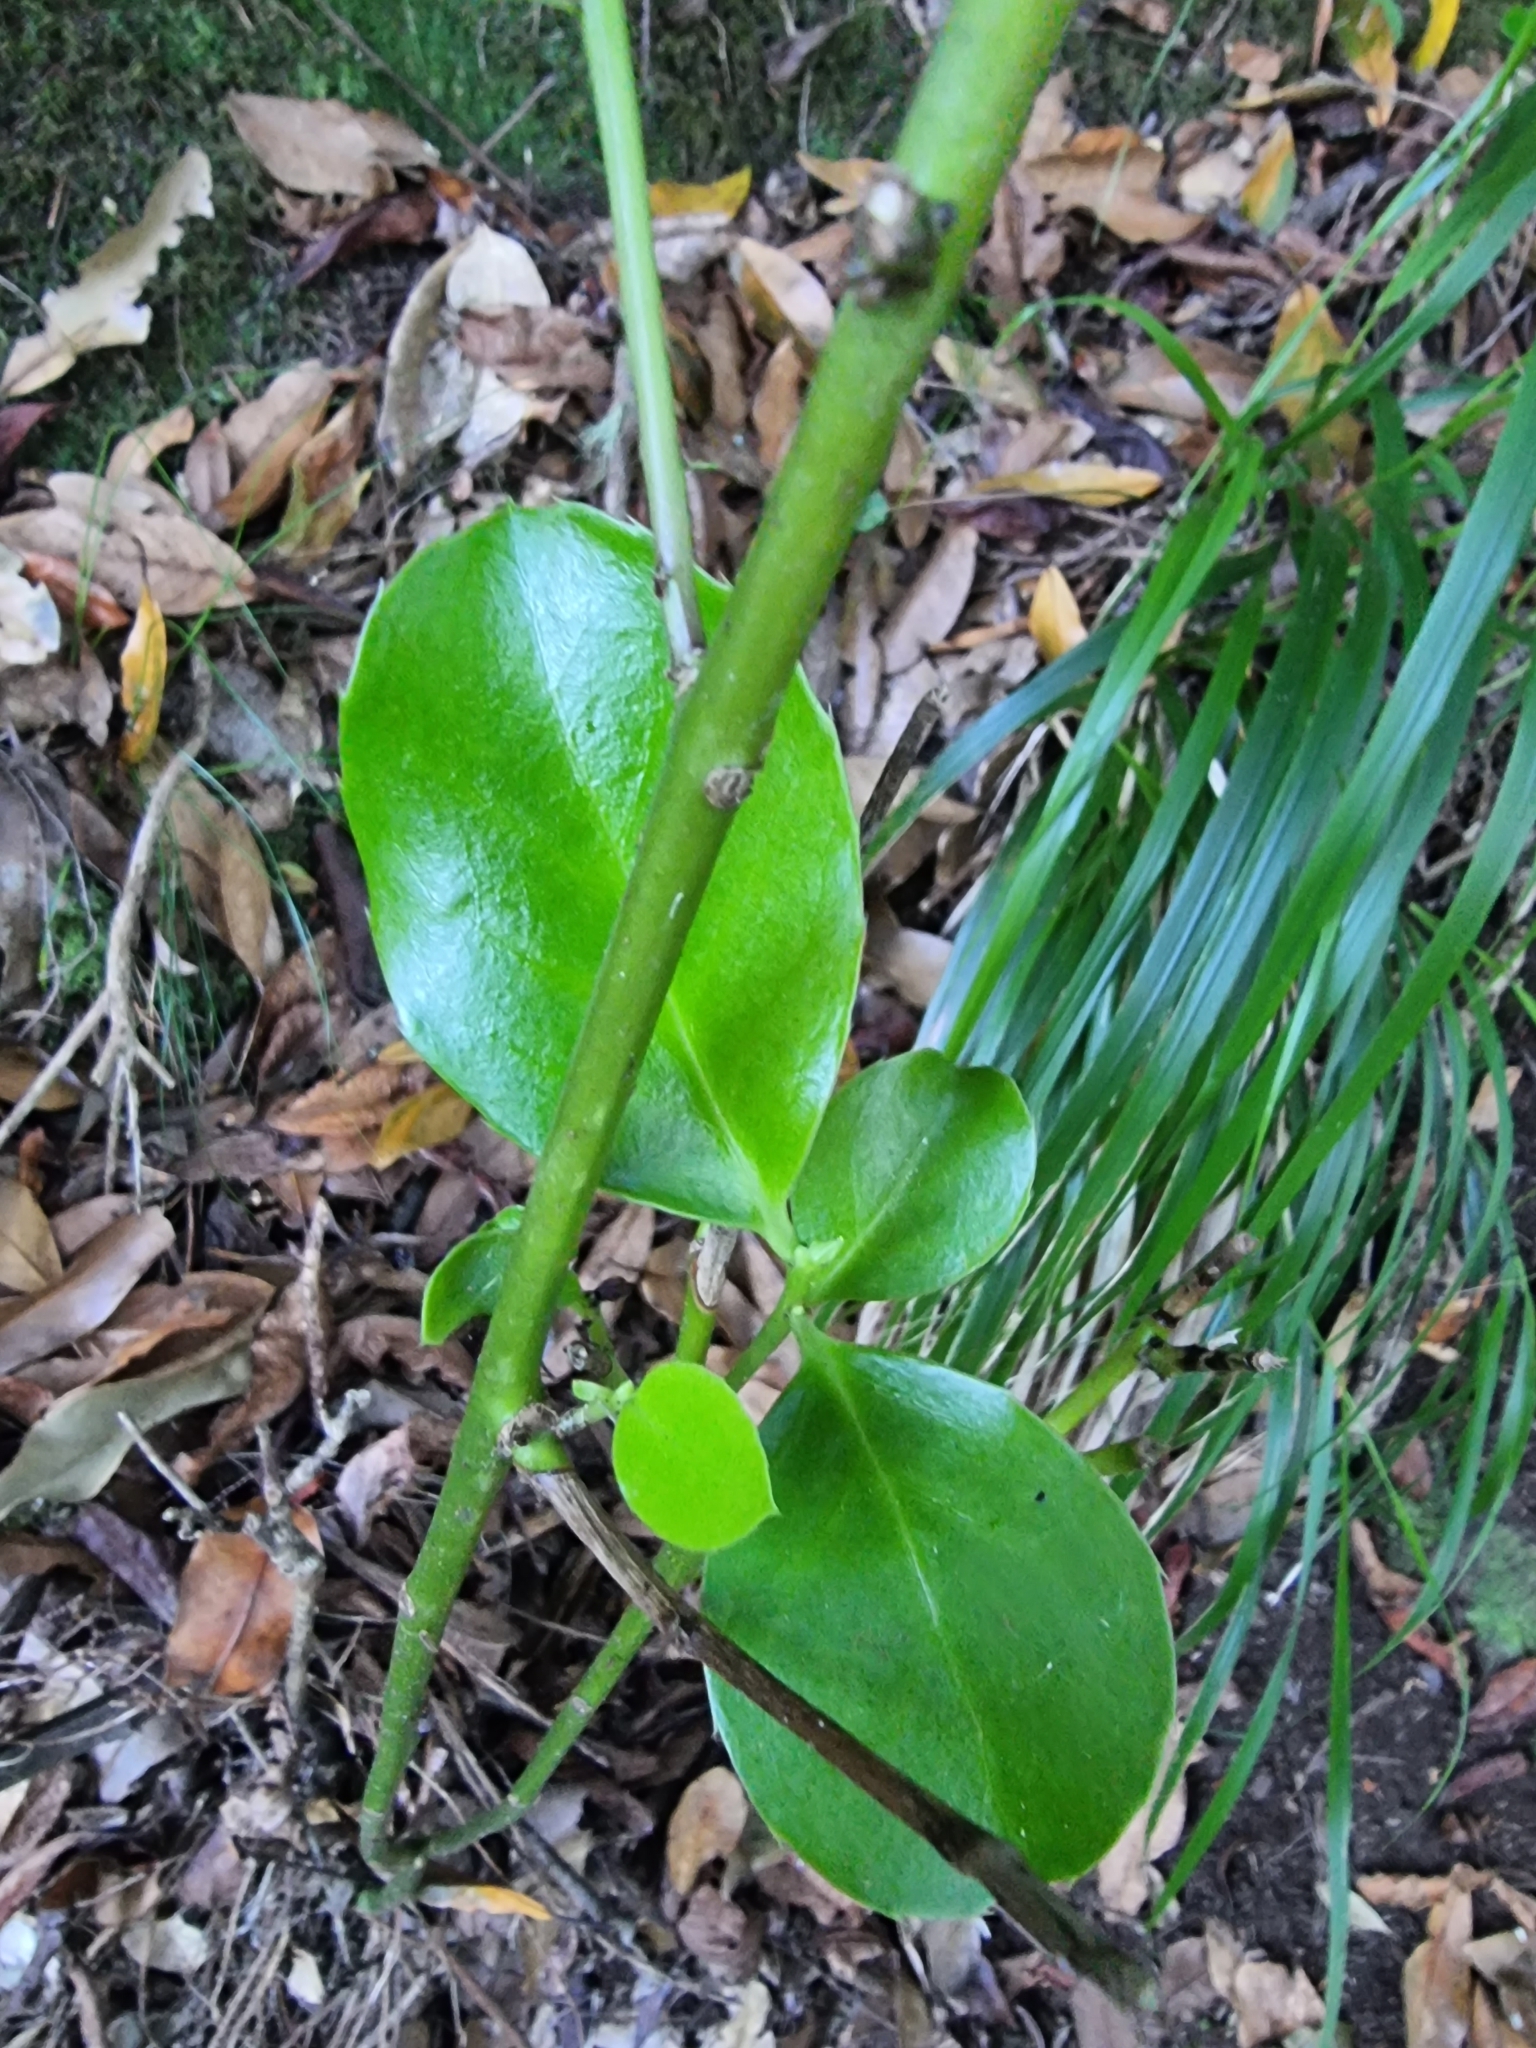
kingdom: Plantae
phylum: Tracheophyta
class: Magnoliopsida
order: Aquifoliales
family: Aquifoliaceae
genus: Ilex
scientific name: Ilex perado
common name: Madeira holly
